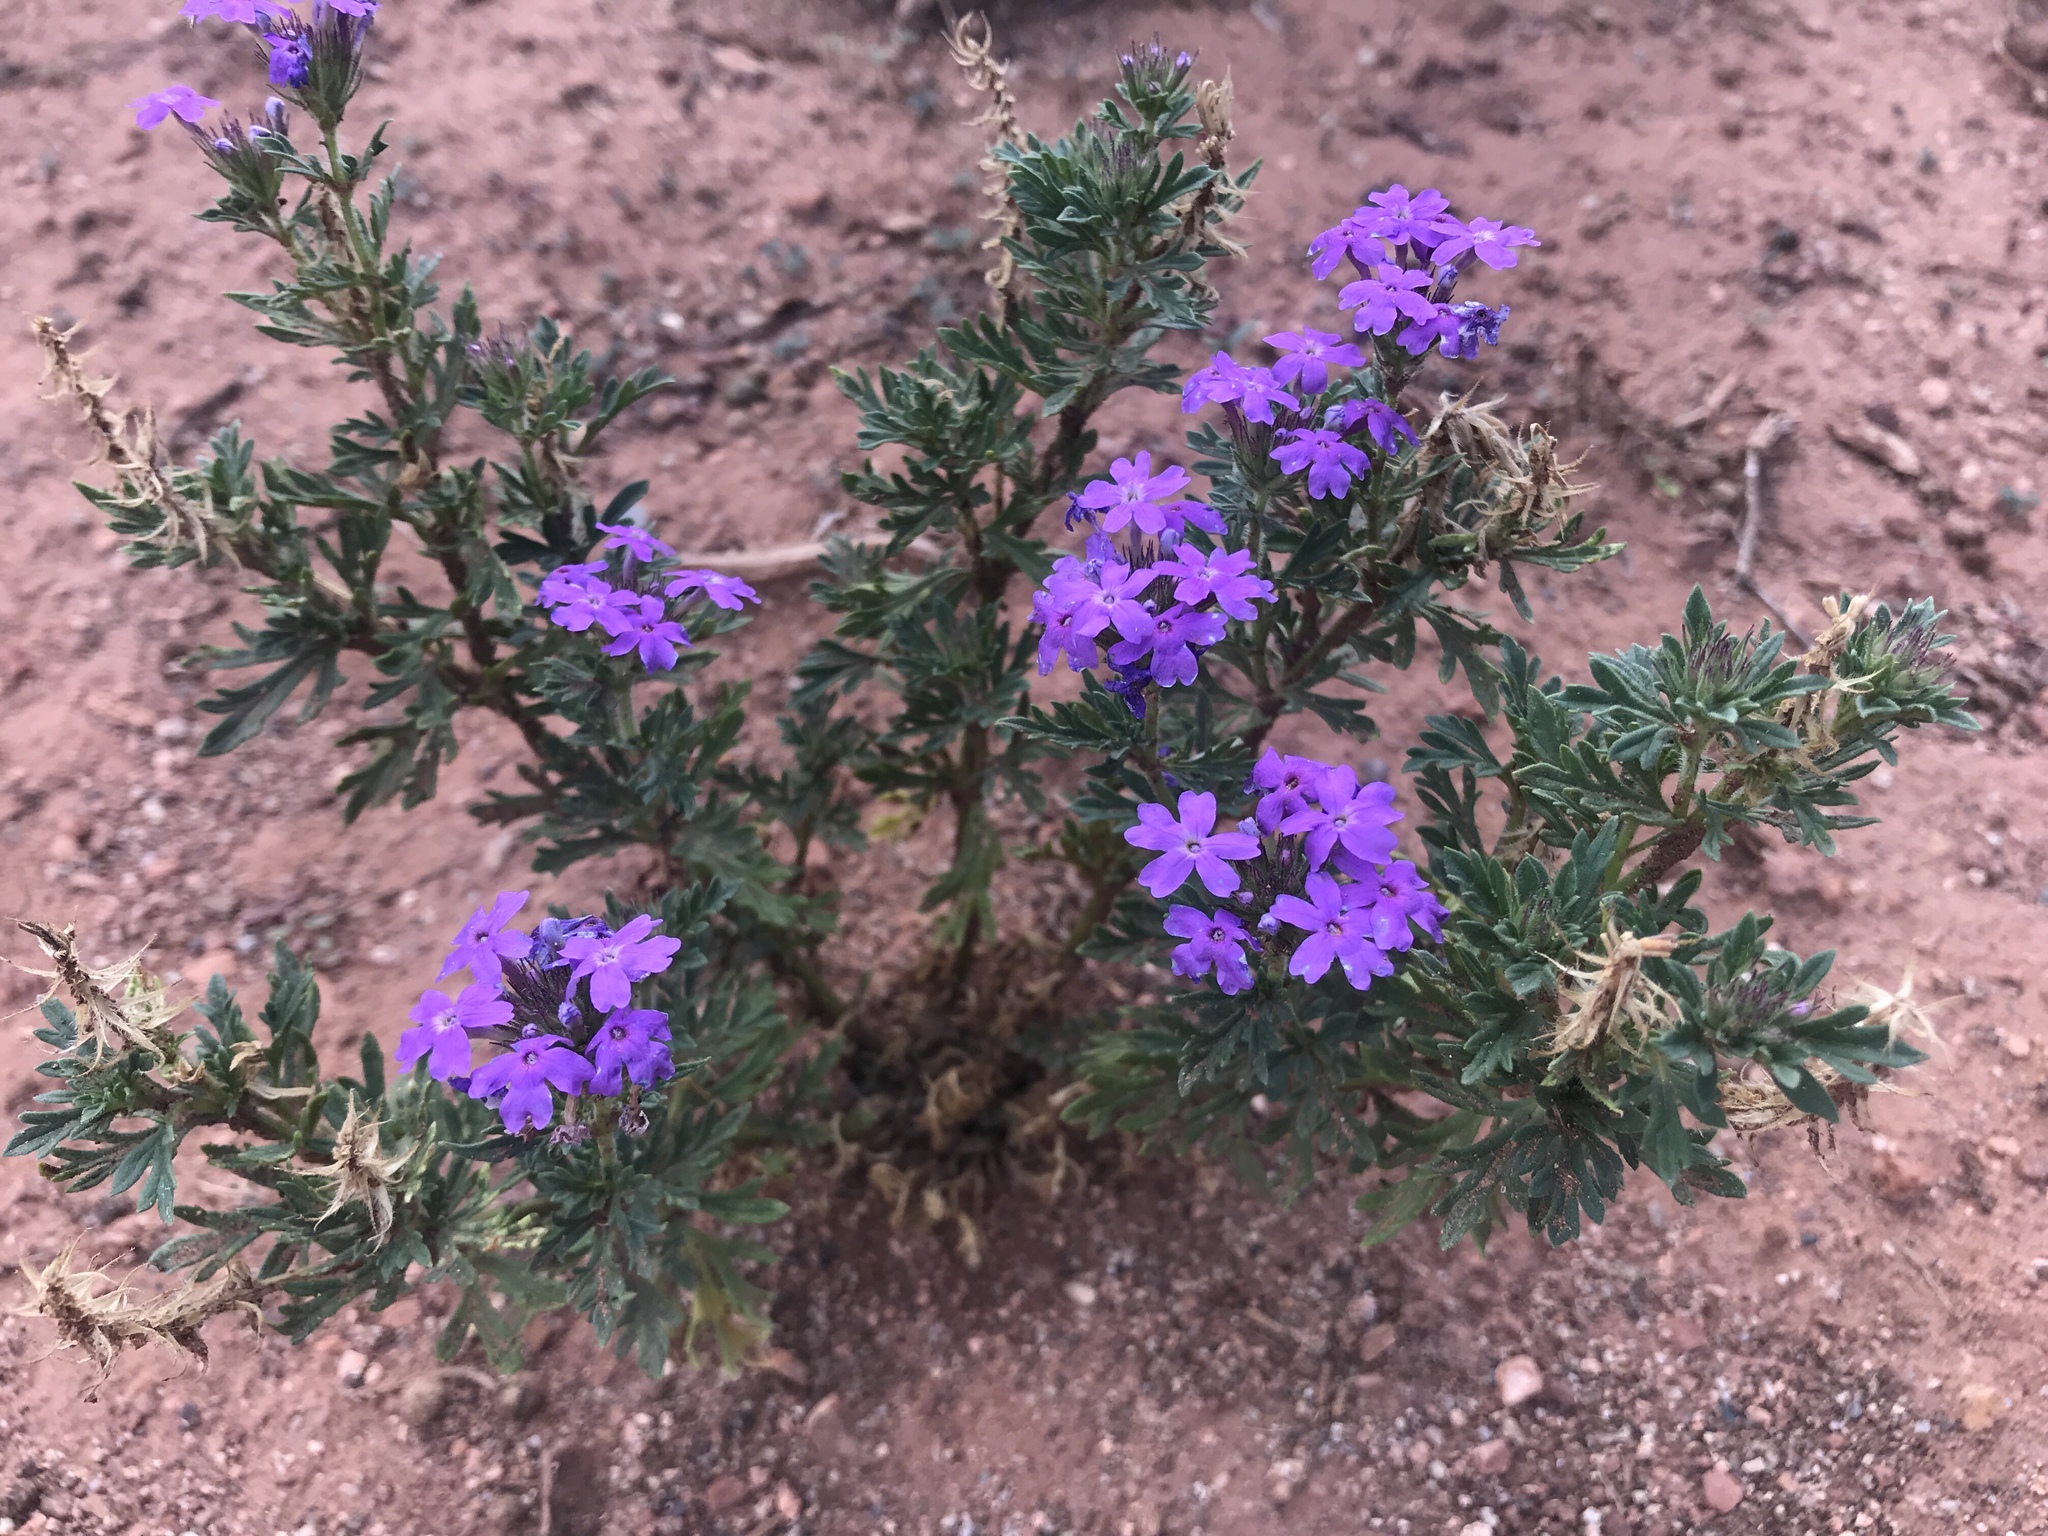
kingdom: Plantae
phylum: Tracheophyta
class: Magnoliopsida
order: Lamiales
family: Verbenaceae
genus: Verbena
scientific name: Verbena bipinnatifida
